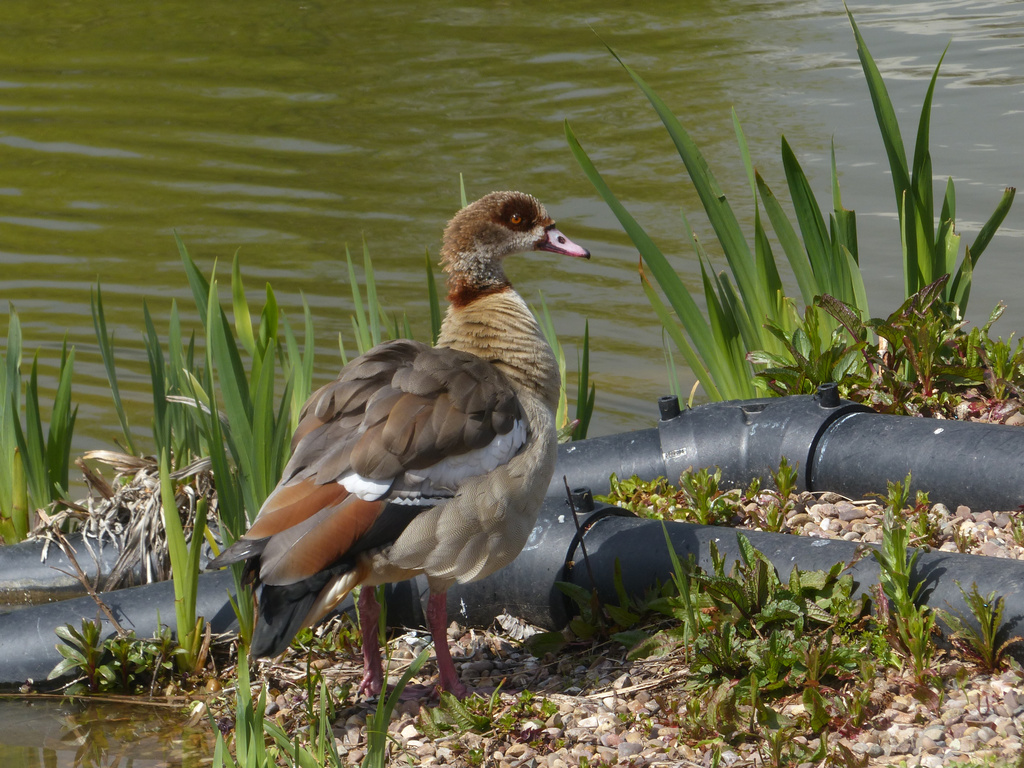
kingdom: Animalia
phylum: Chordata
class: Aves
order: Anseriformes
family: Anatidae
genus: Alopochen
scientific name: Alopochen aegyptiaca
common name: Egyptian goose
